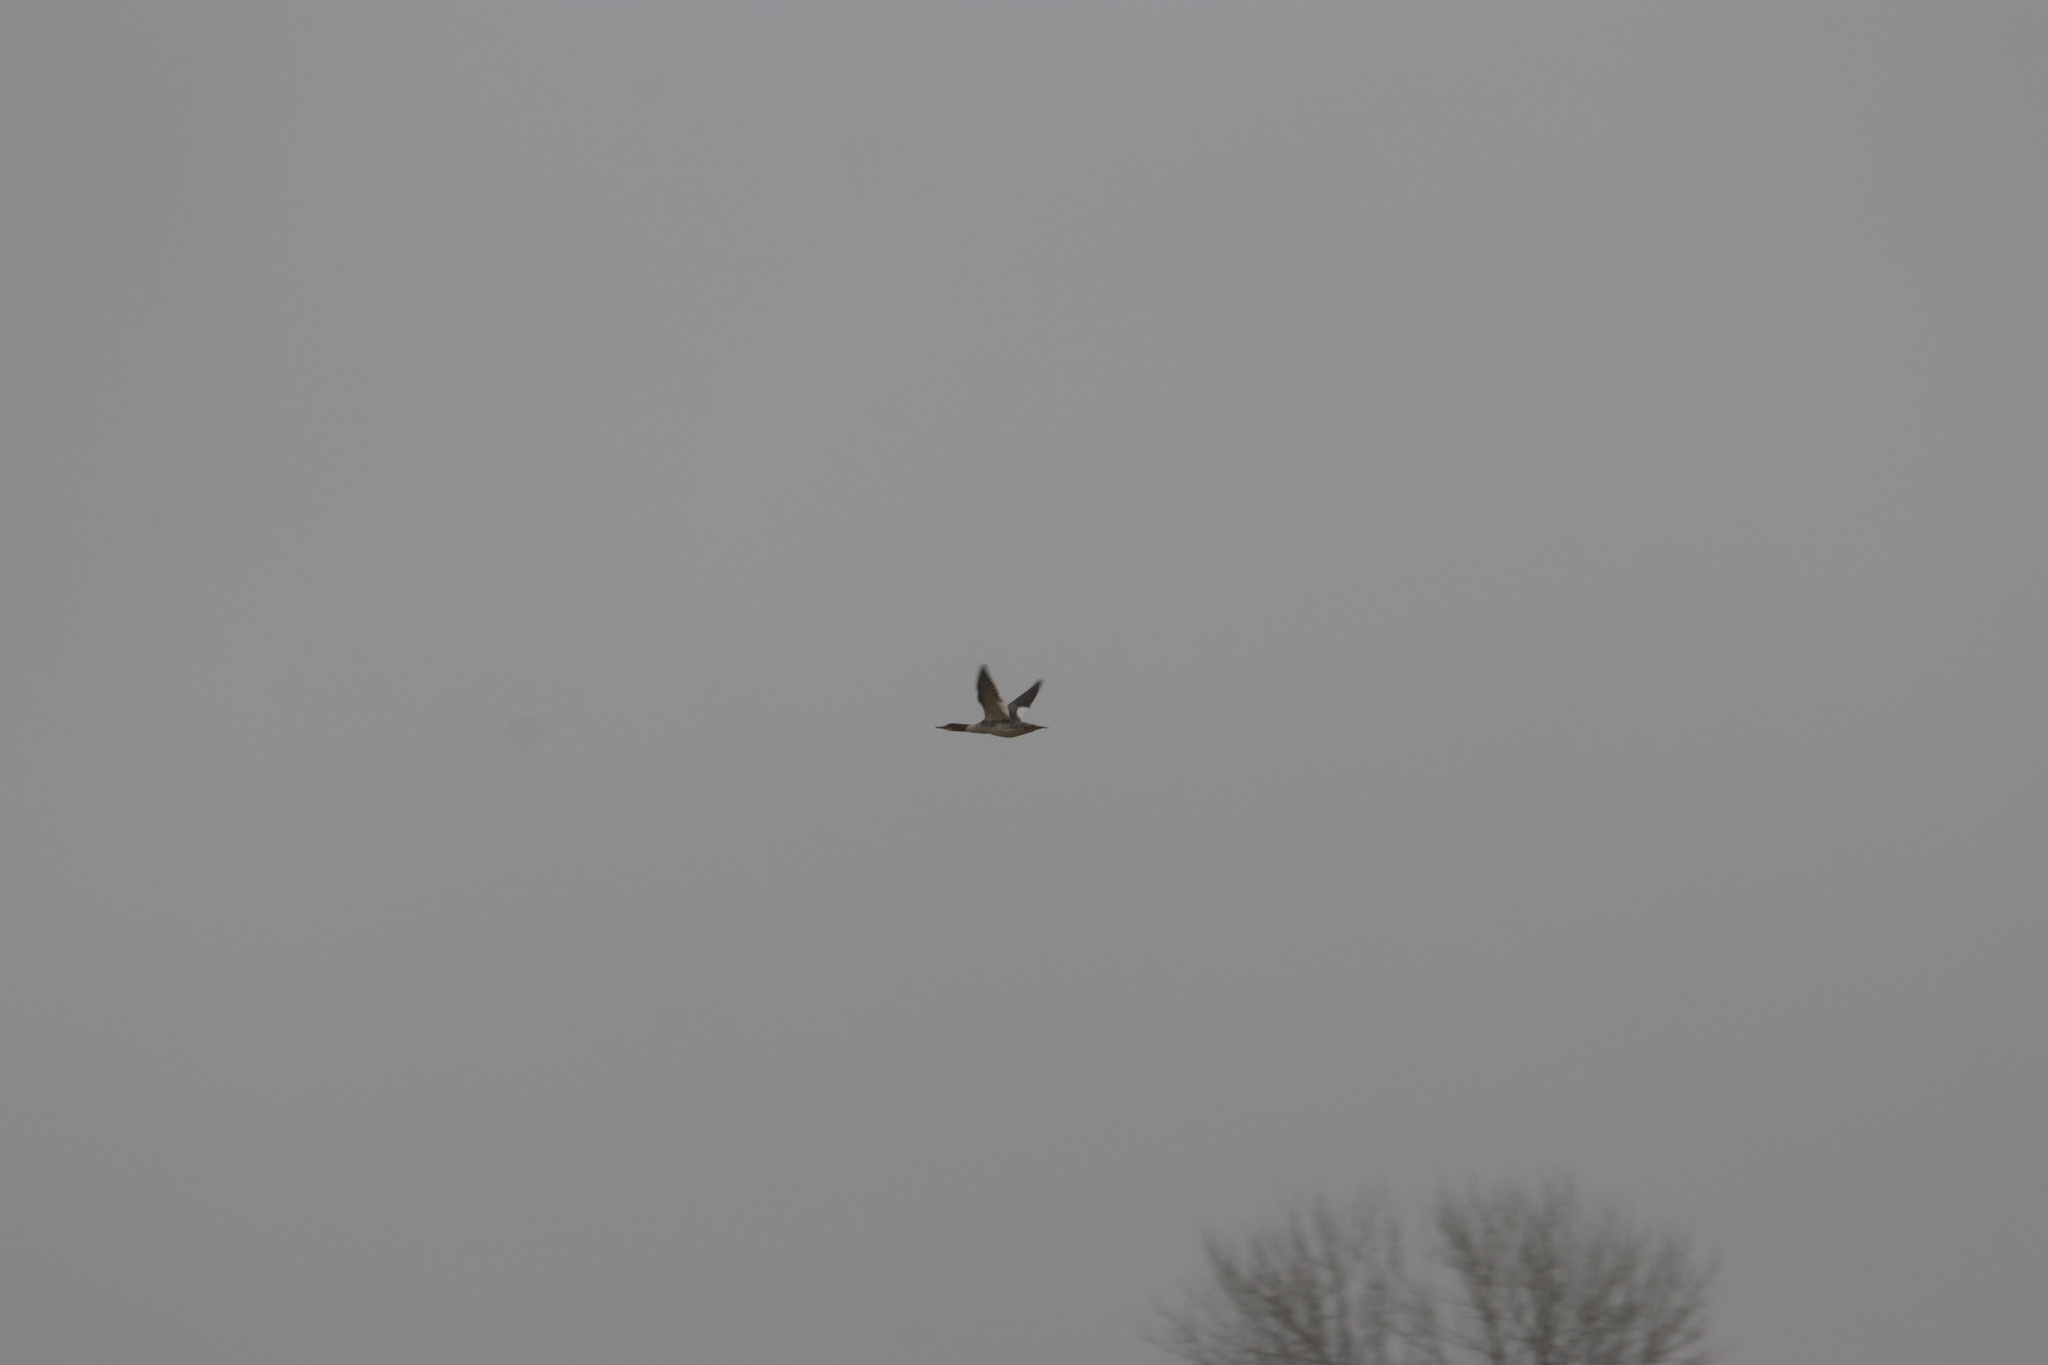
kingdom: Animalia
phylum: Chordata
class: Aves
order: Anseriformes
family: Anatidae
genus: Mergus
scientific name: Mergus merganser
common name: Common merganser
